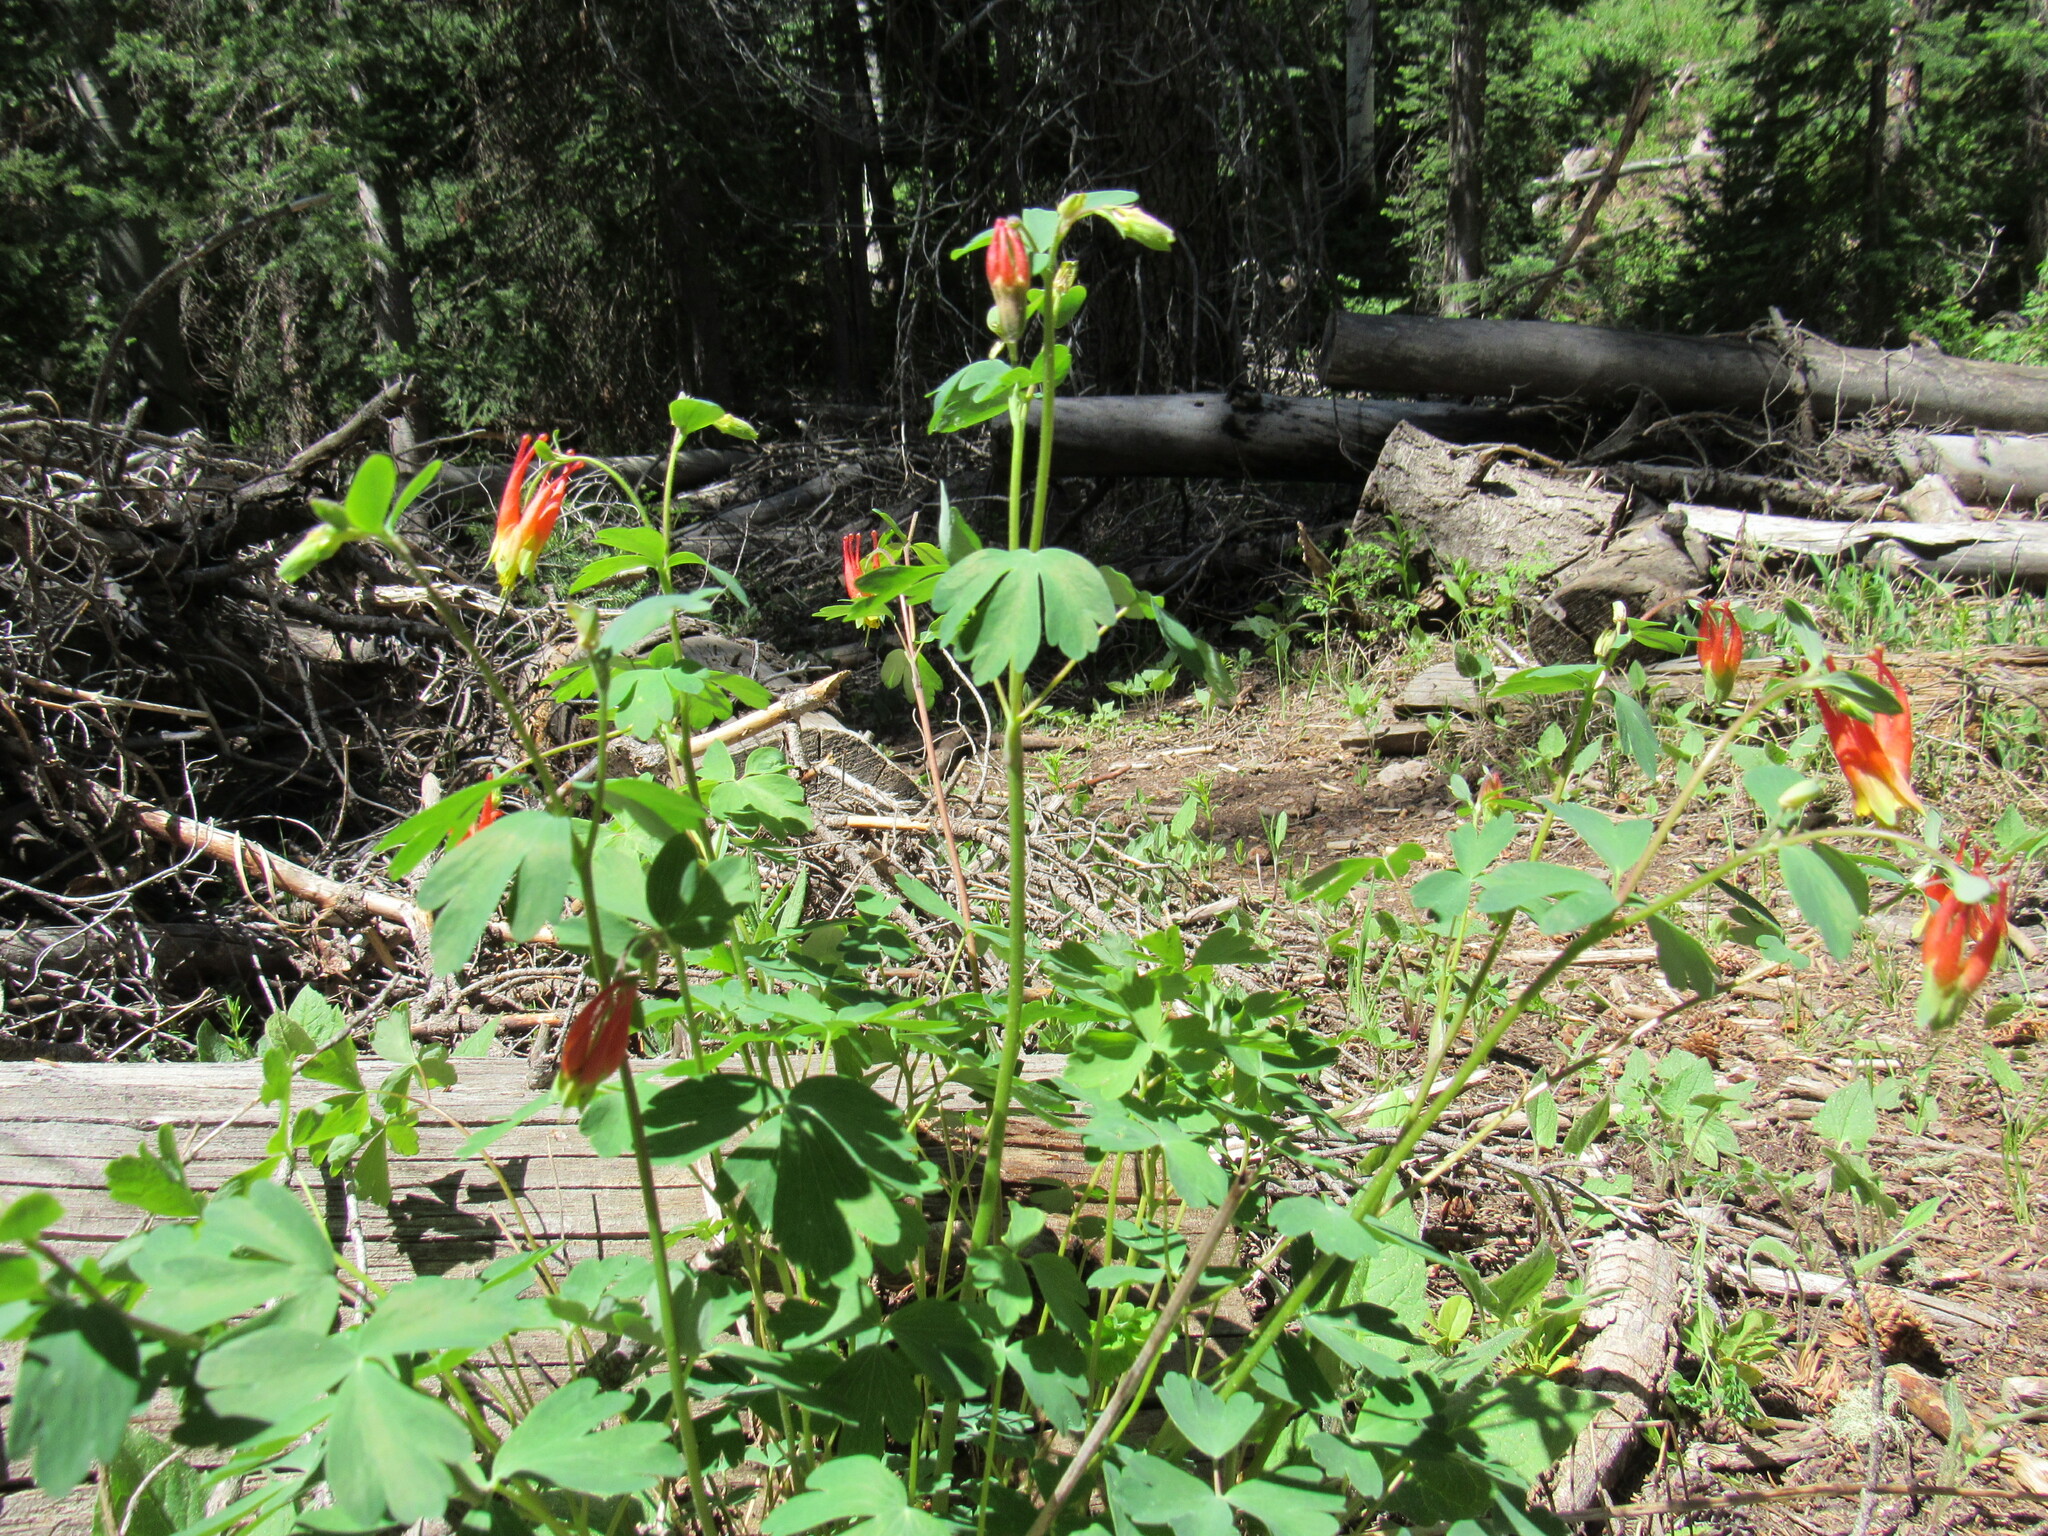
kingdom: Plantae
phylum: Tracheophyta
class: Magnoliopsida
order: Ranunculales
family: Ranunculaceae
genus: Aquilegia
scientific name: Aquilegia elegantula
